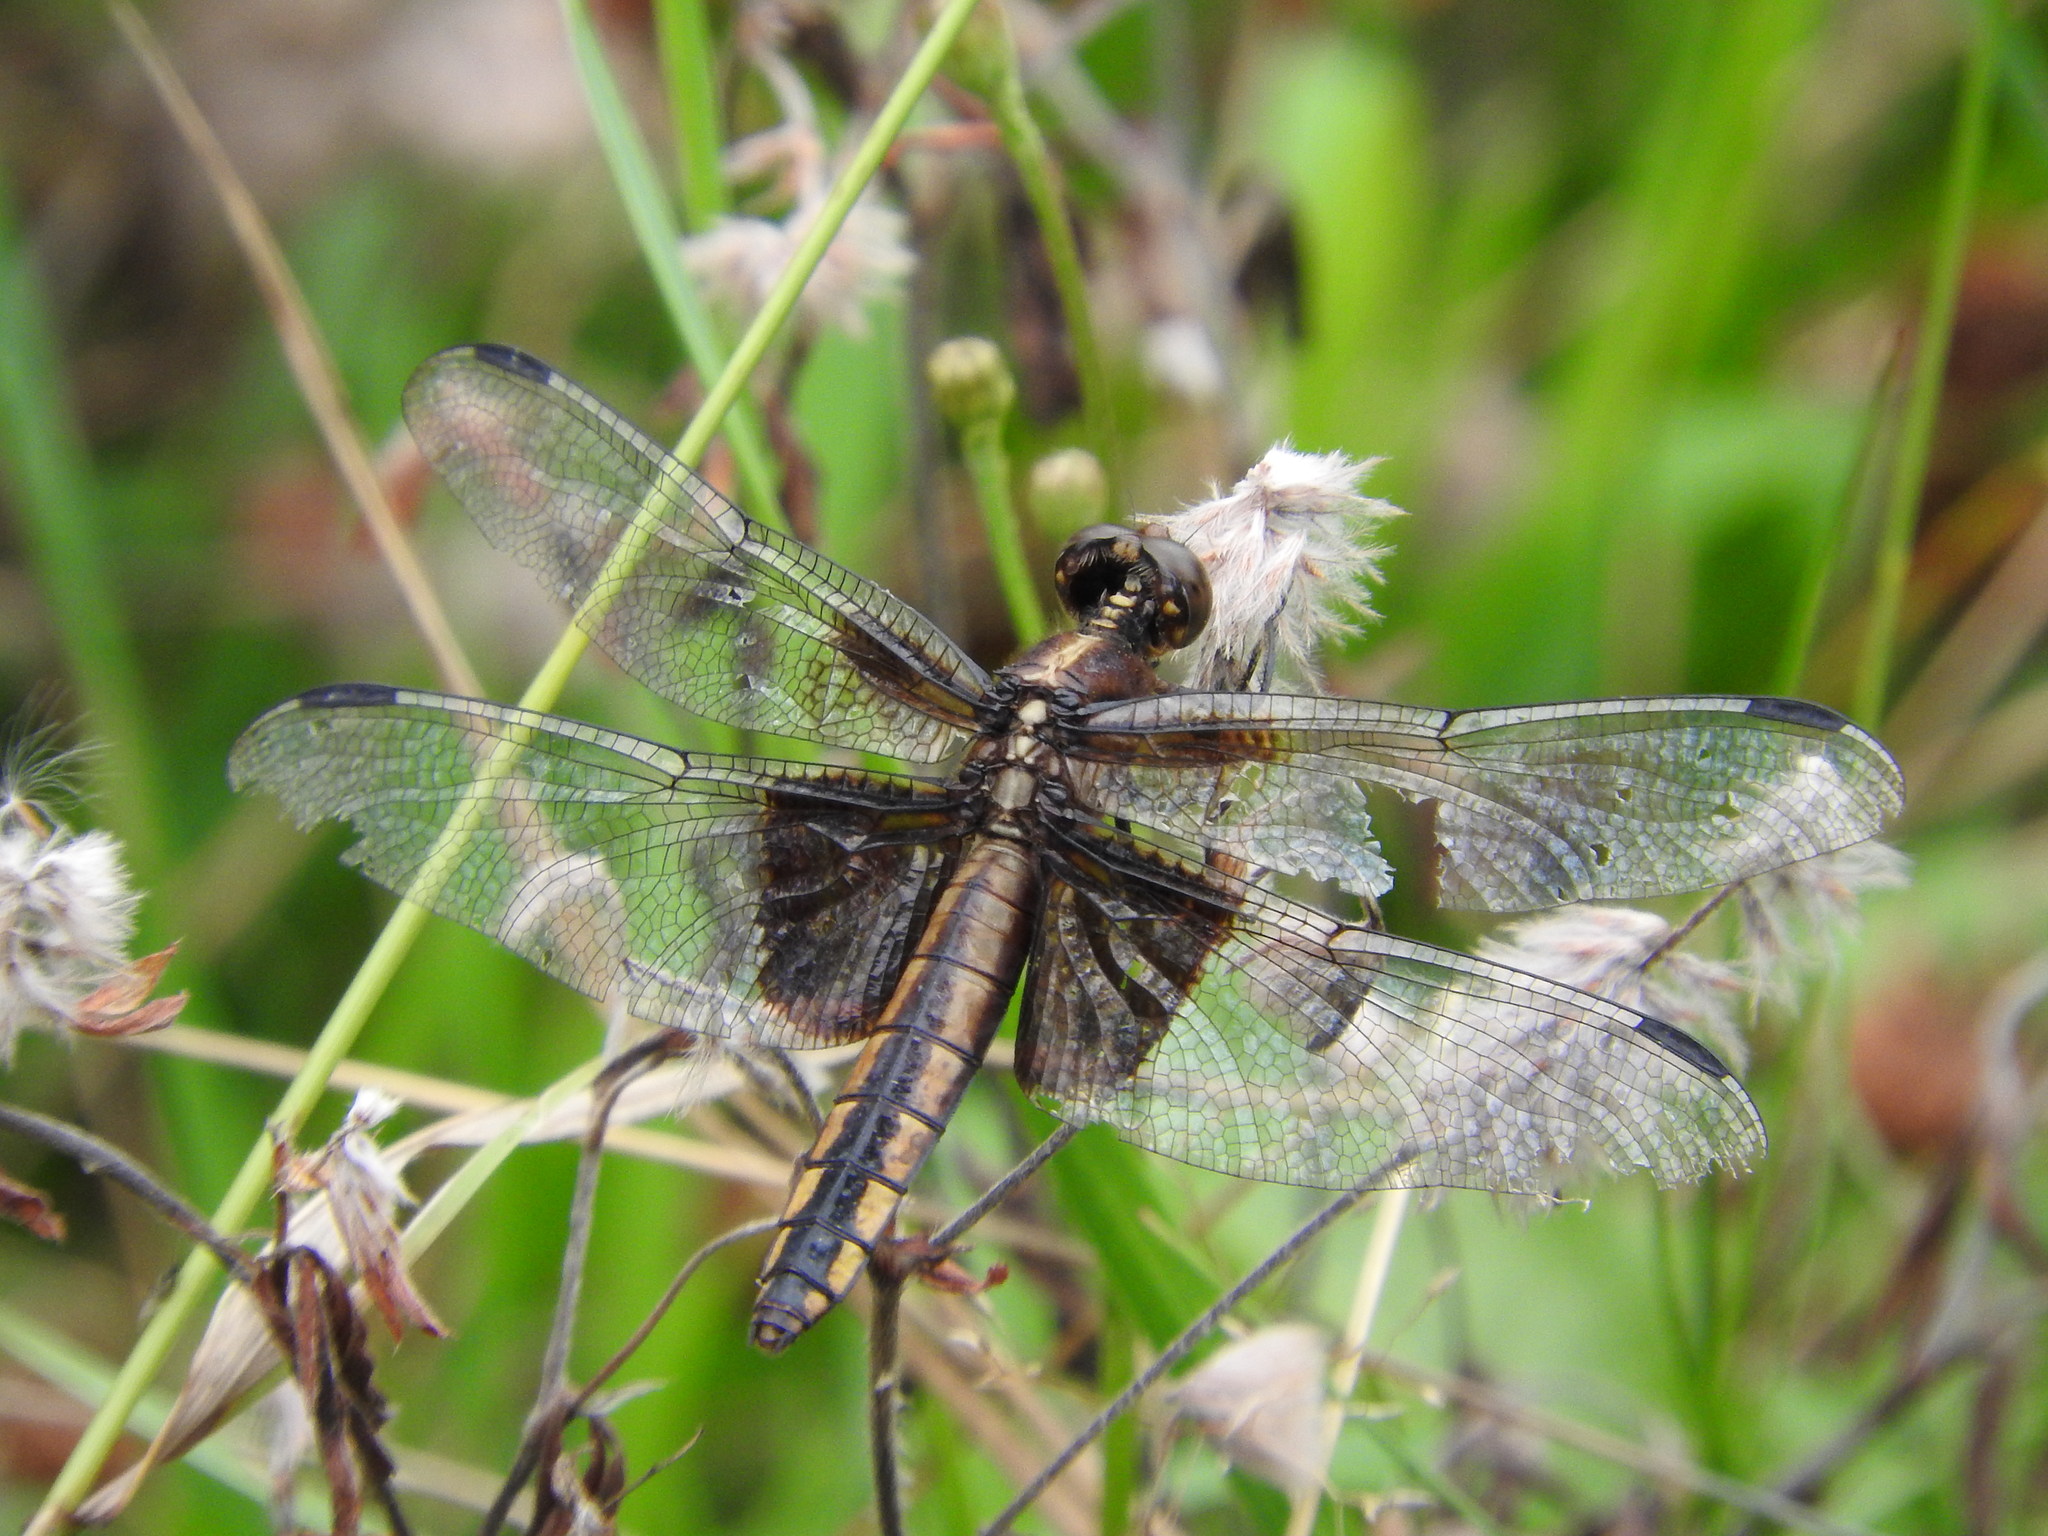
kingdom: Animalia
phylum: Arthropoda
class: Insecta
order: Odonata
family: Libellulidae
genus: Libellula
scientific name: Libellula luctuosa
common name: Widow skimmer
